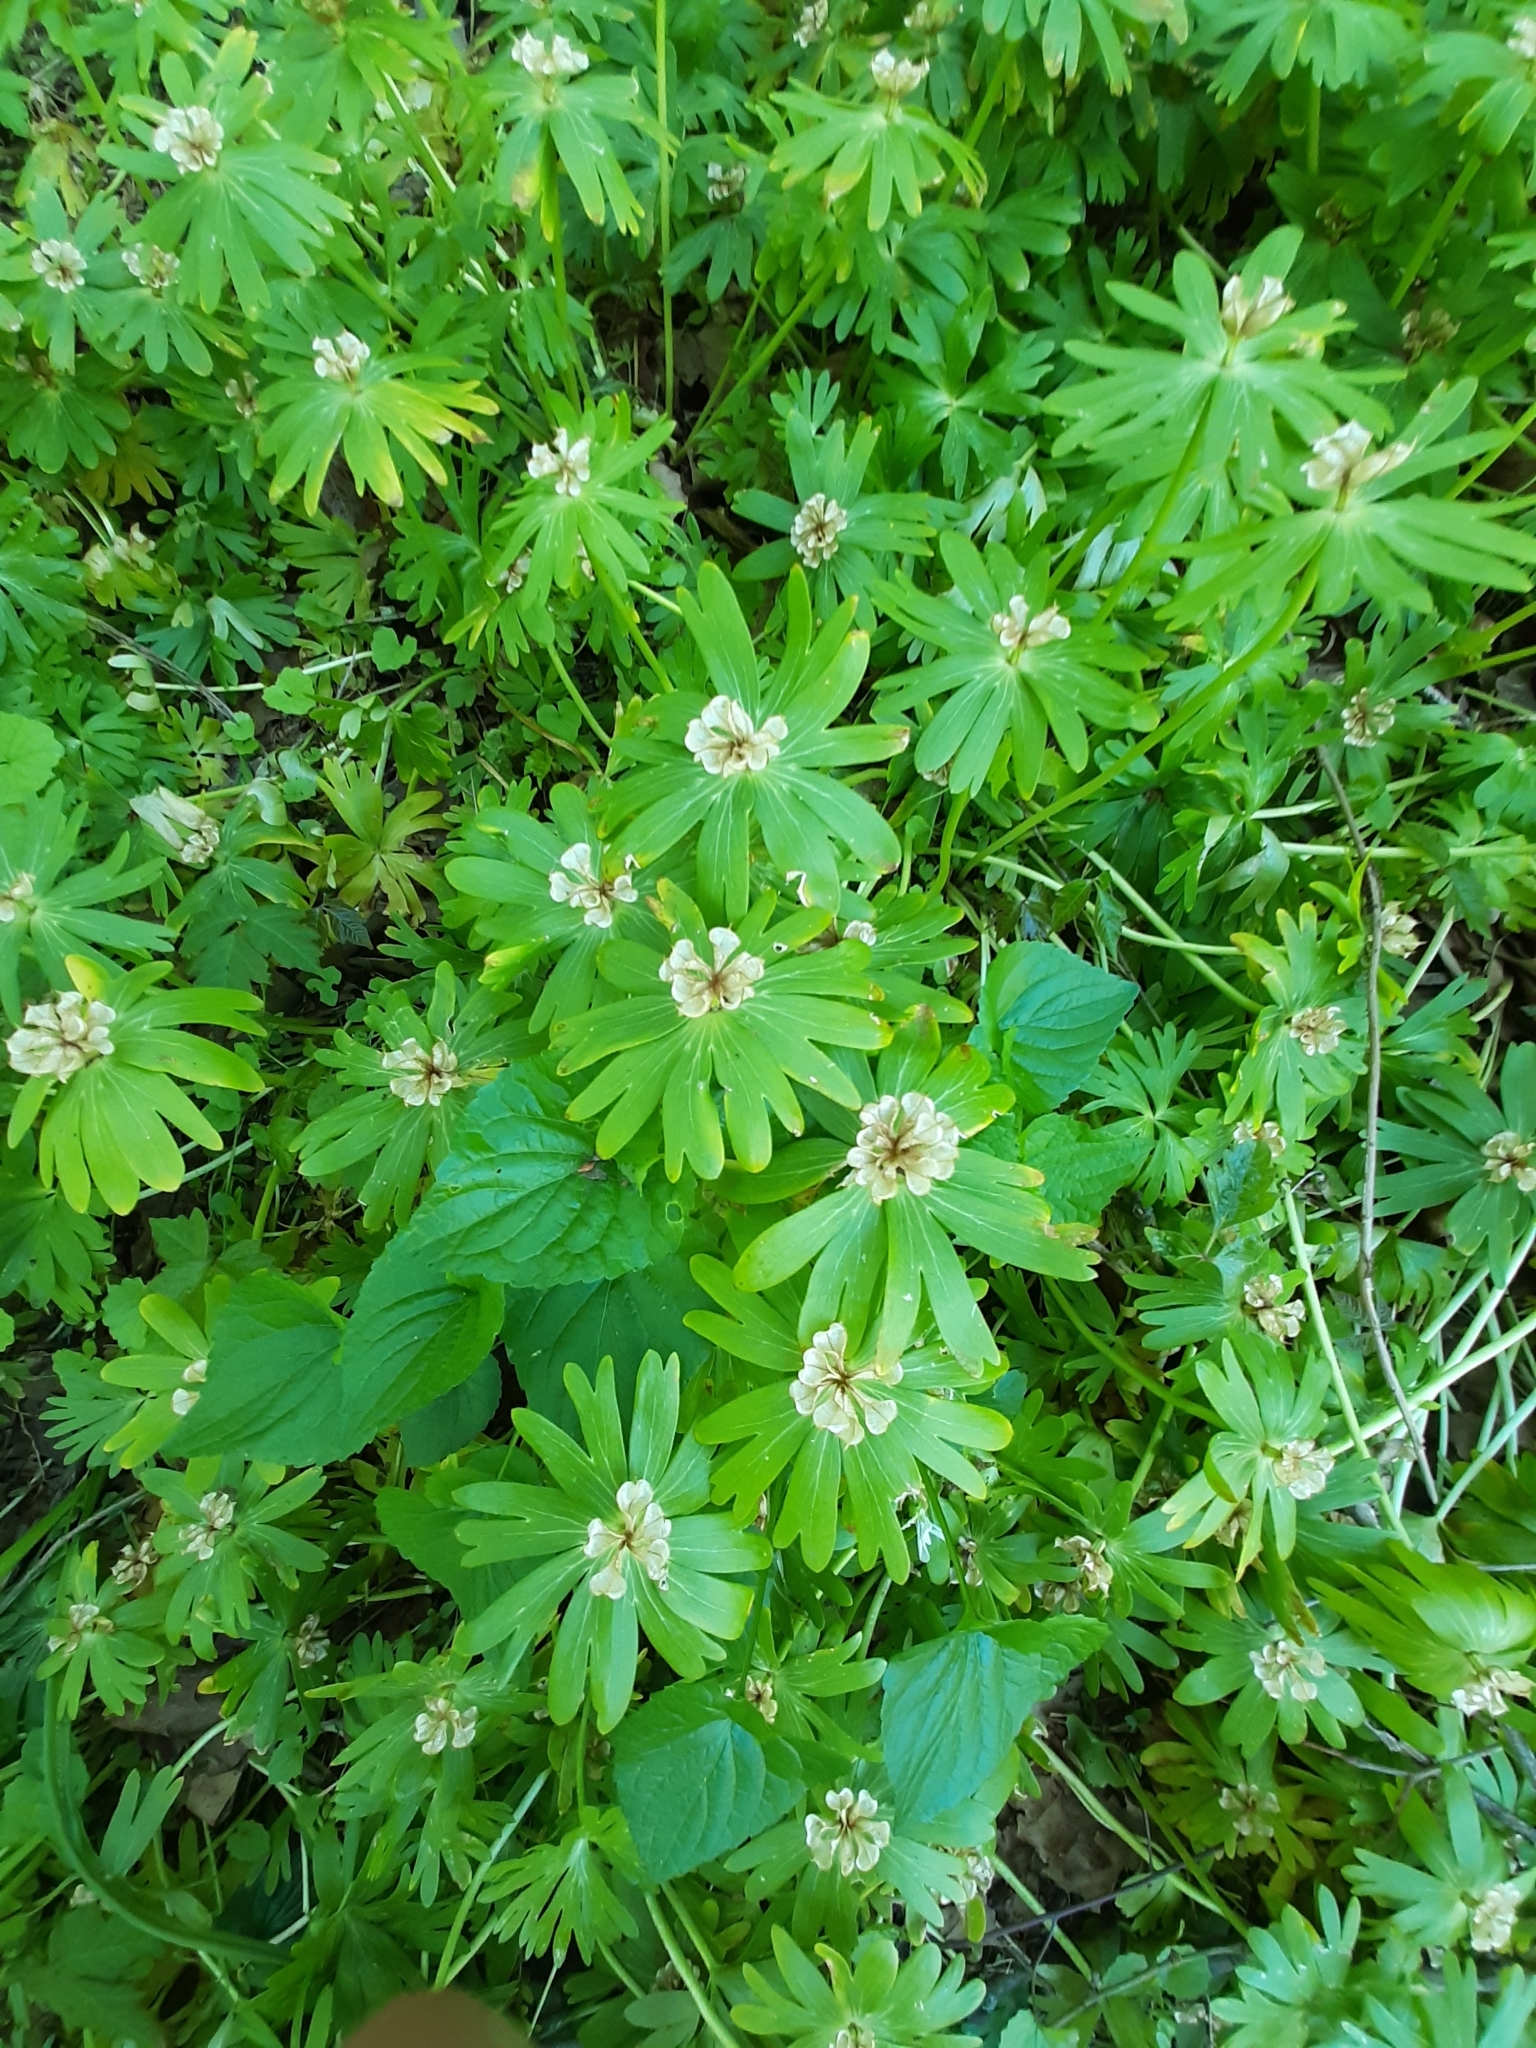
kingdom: Plantae
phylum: Tracheophyta
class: Magnoliopsida
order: Ranunculales
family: Ranunculaceae
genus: Eranthis
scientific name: Eranthis hyemalis
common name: Winter aconite
